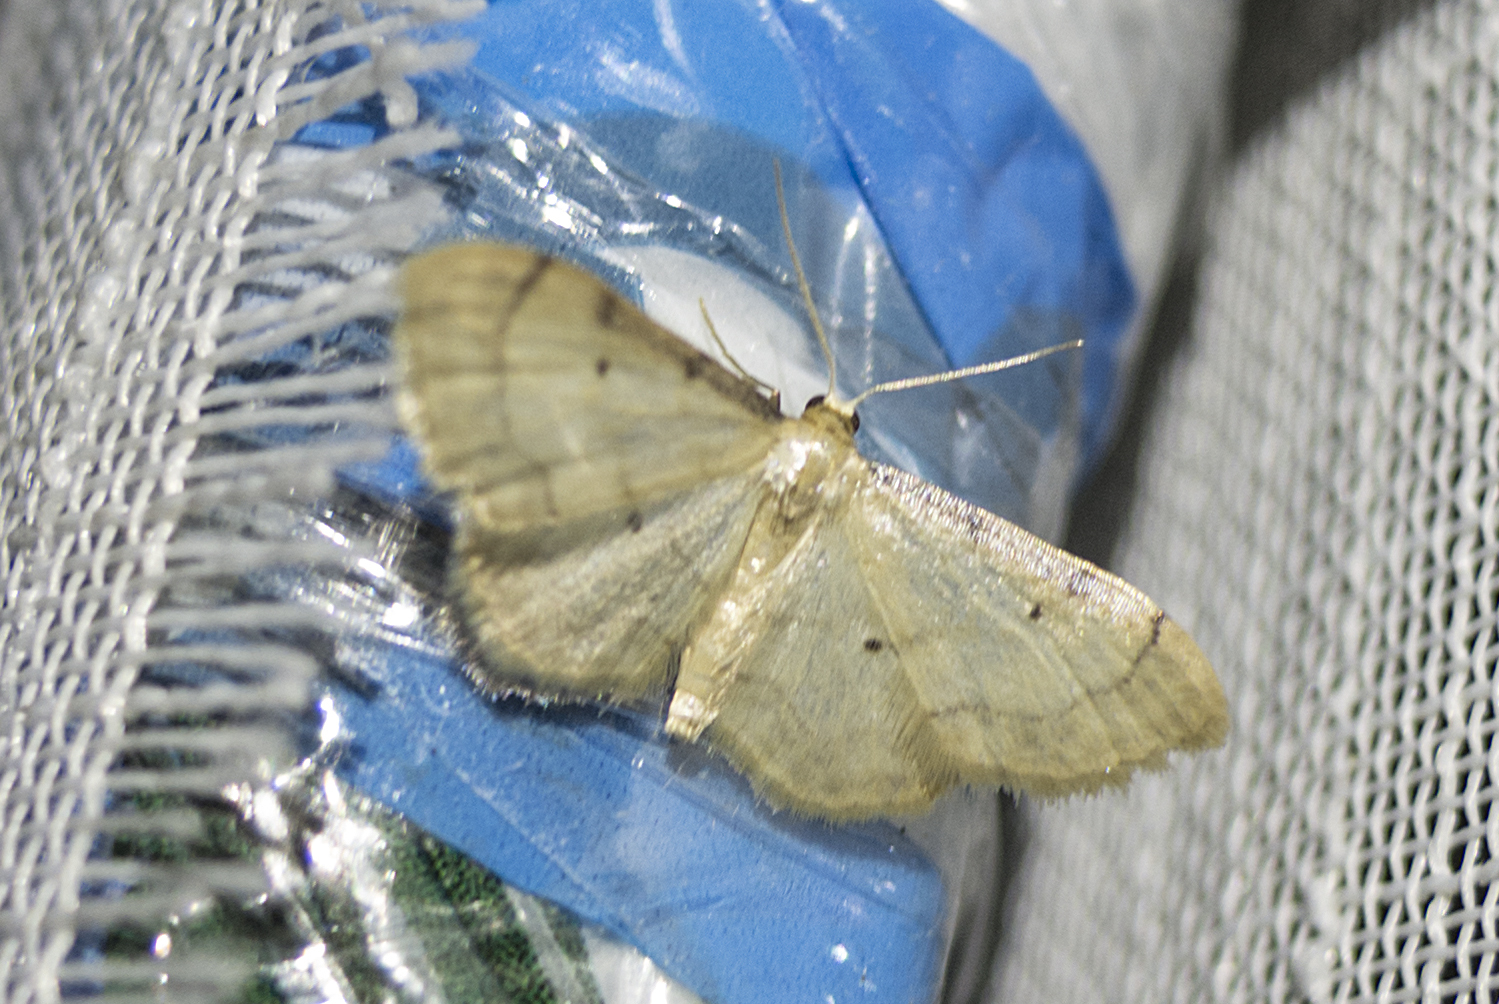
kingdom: Animalia
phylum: Arthropoda
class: Insecta
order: Lepidoptera
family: Geometridae
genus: Idaea
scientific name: Idaea politaria
